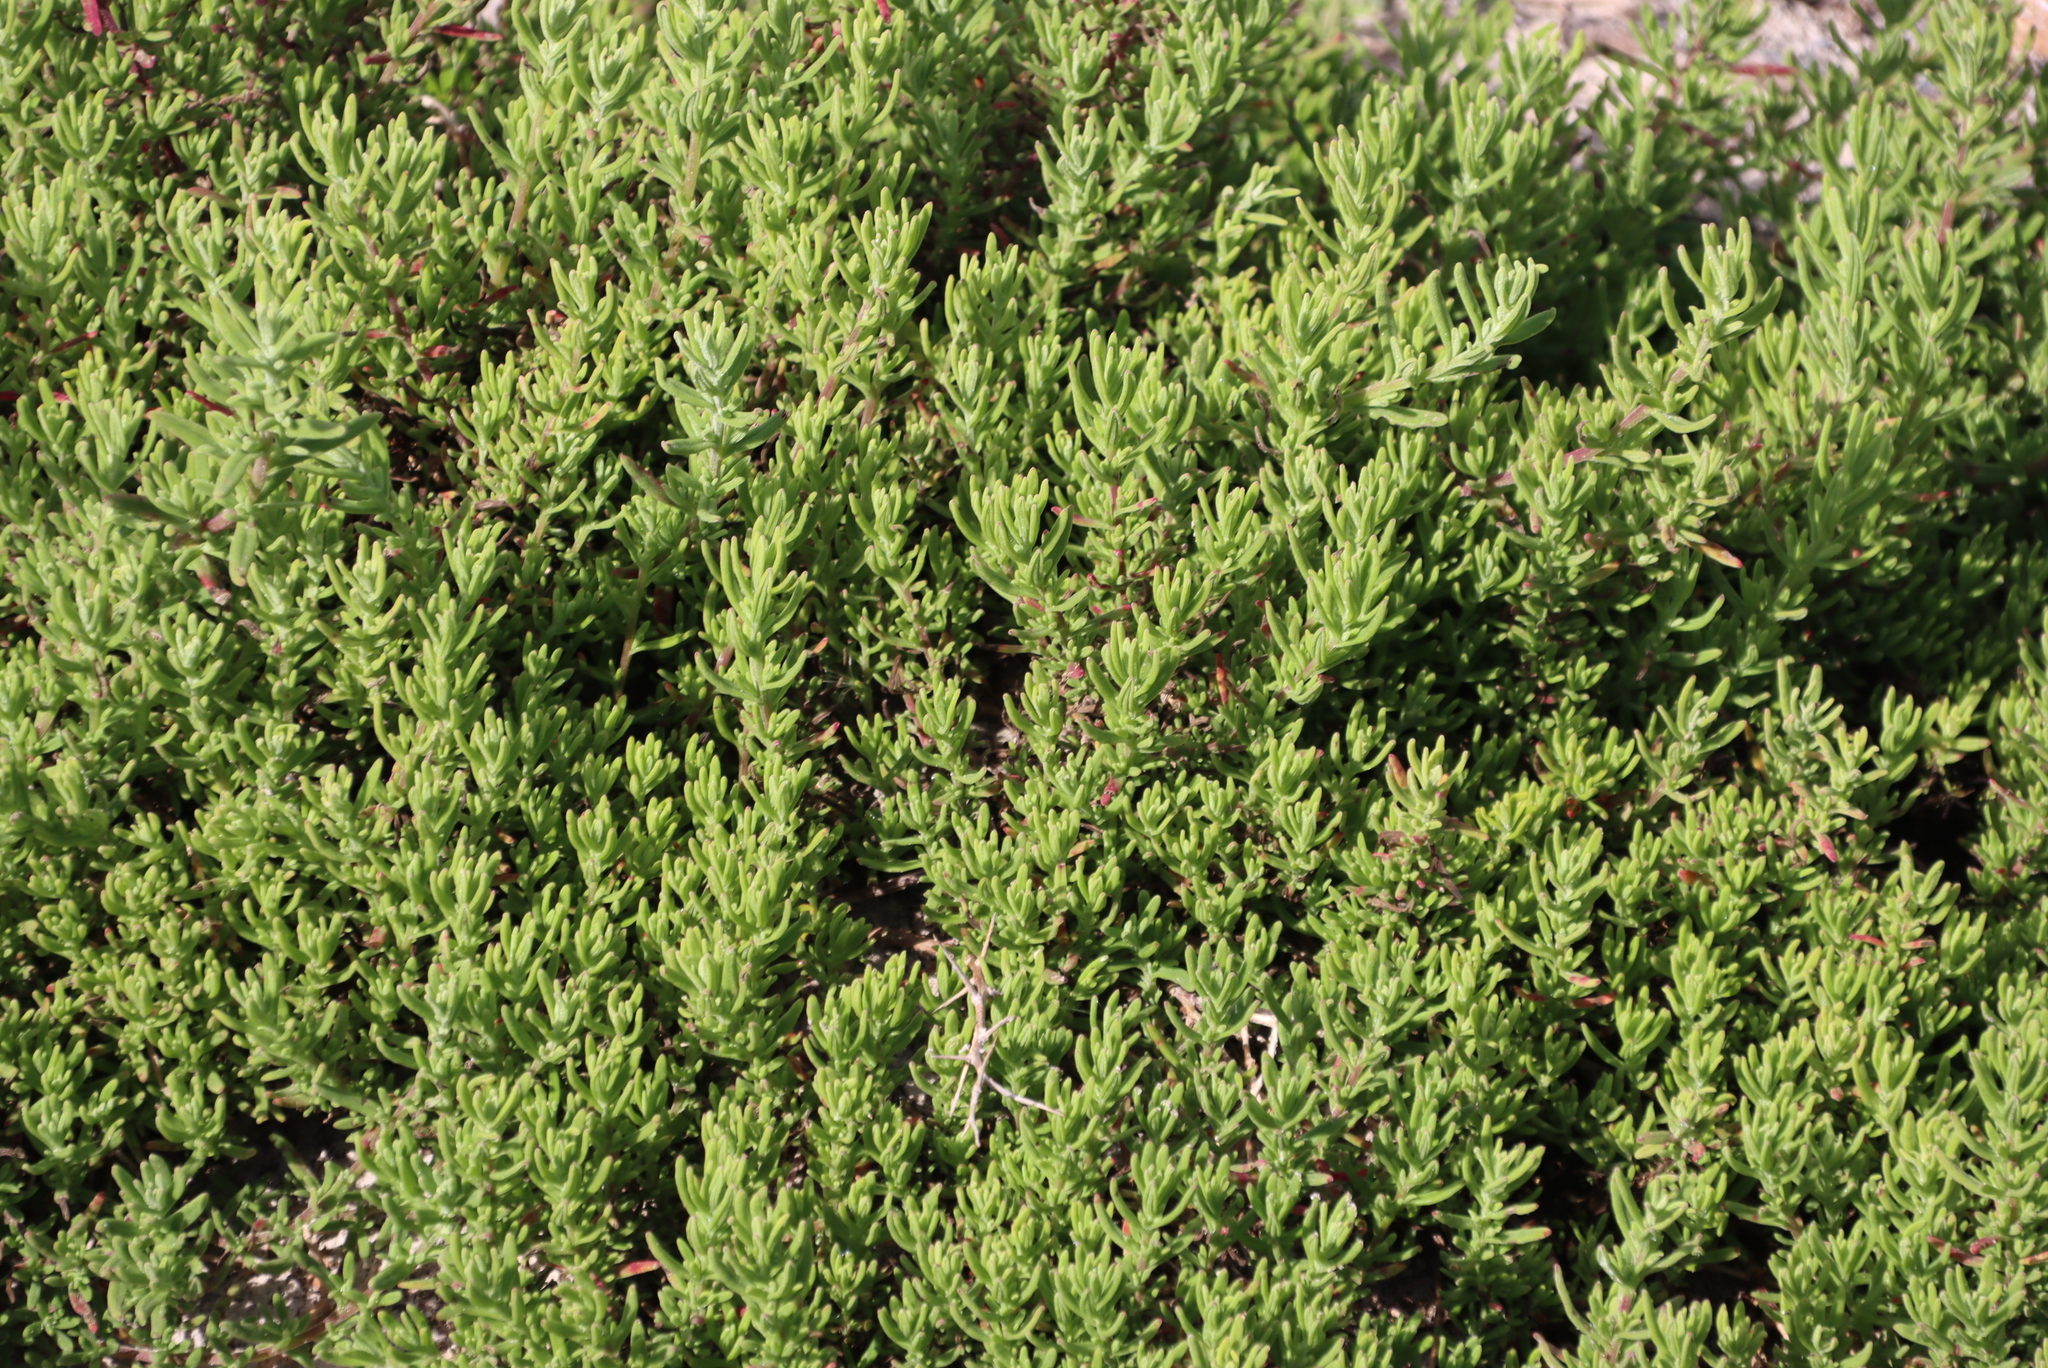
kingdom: Plantae
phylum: Tracheophyta
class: Magnoliopsida
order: Caryophyllales
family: Aizoaceae
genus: Tetragonia
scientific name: Tetragonia fruticosa
